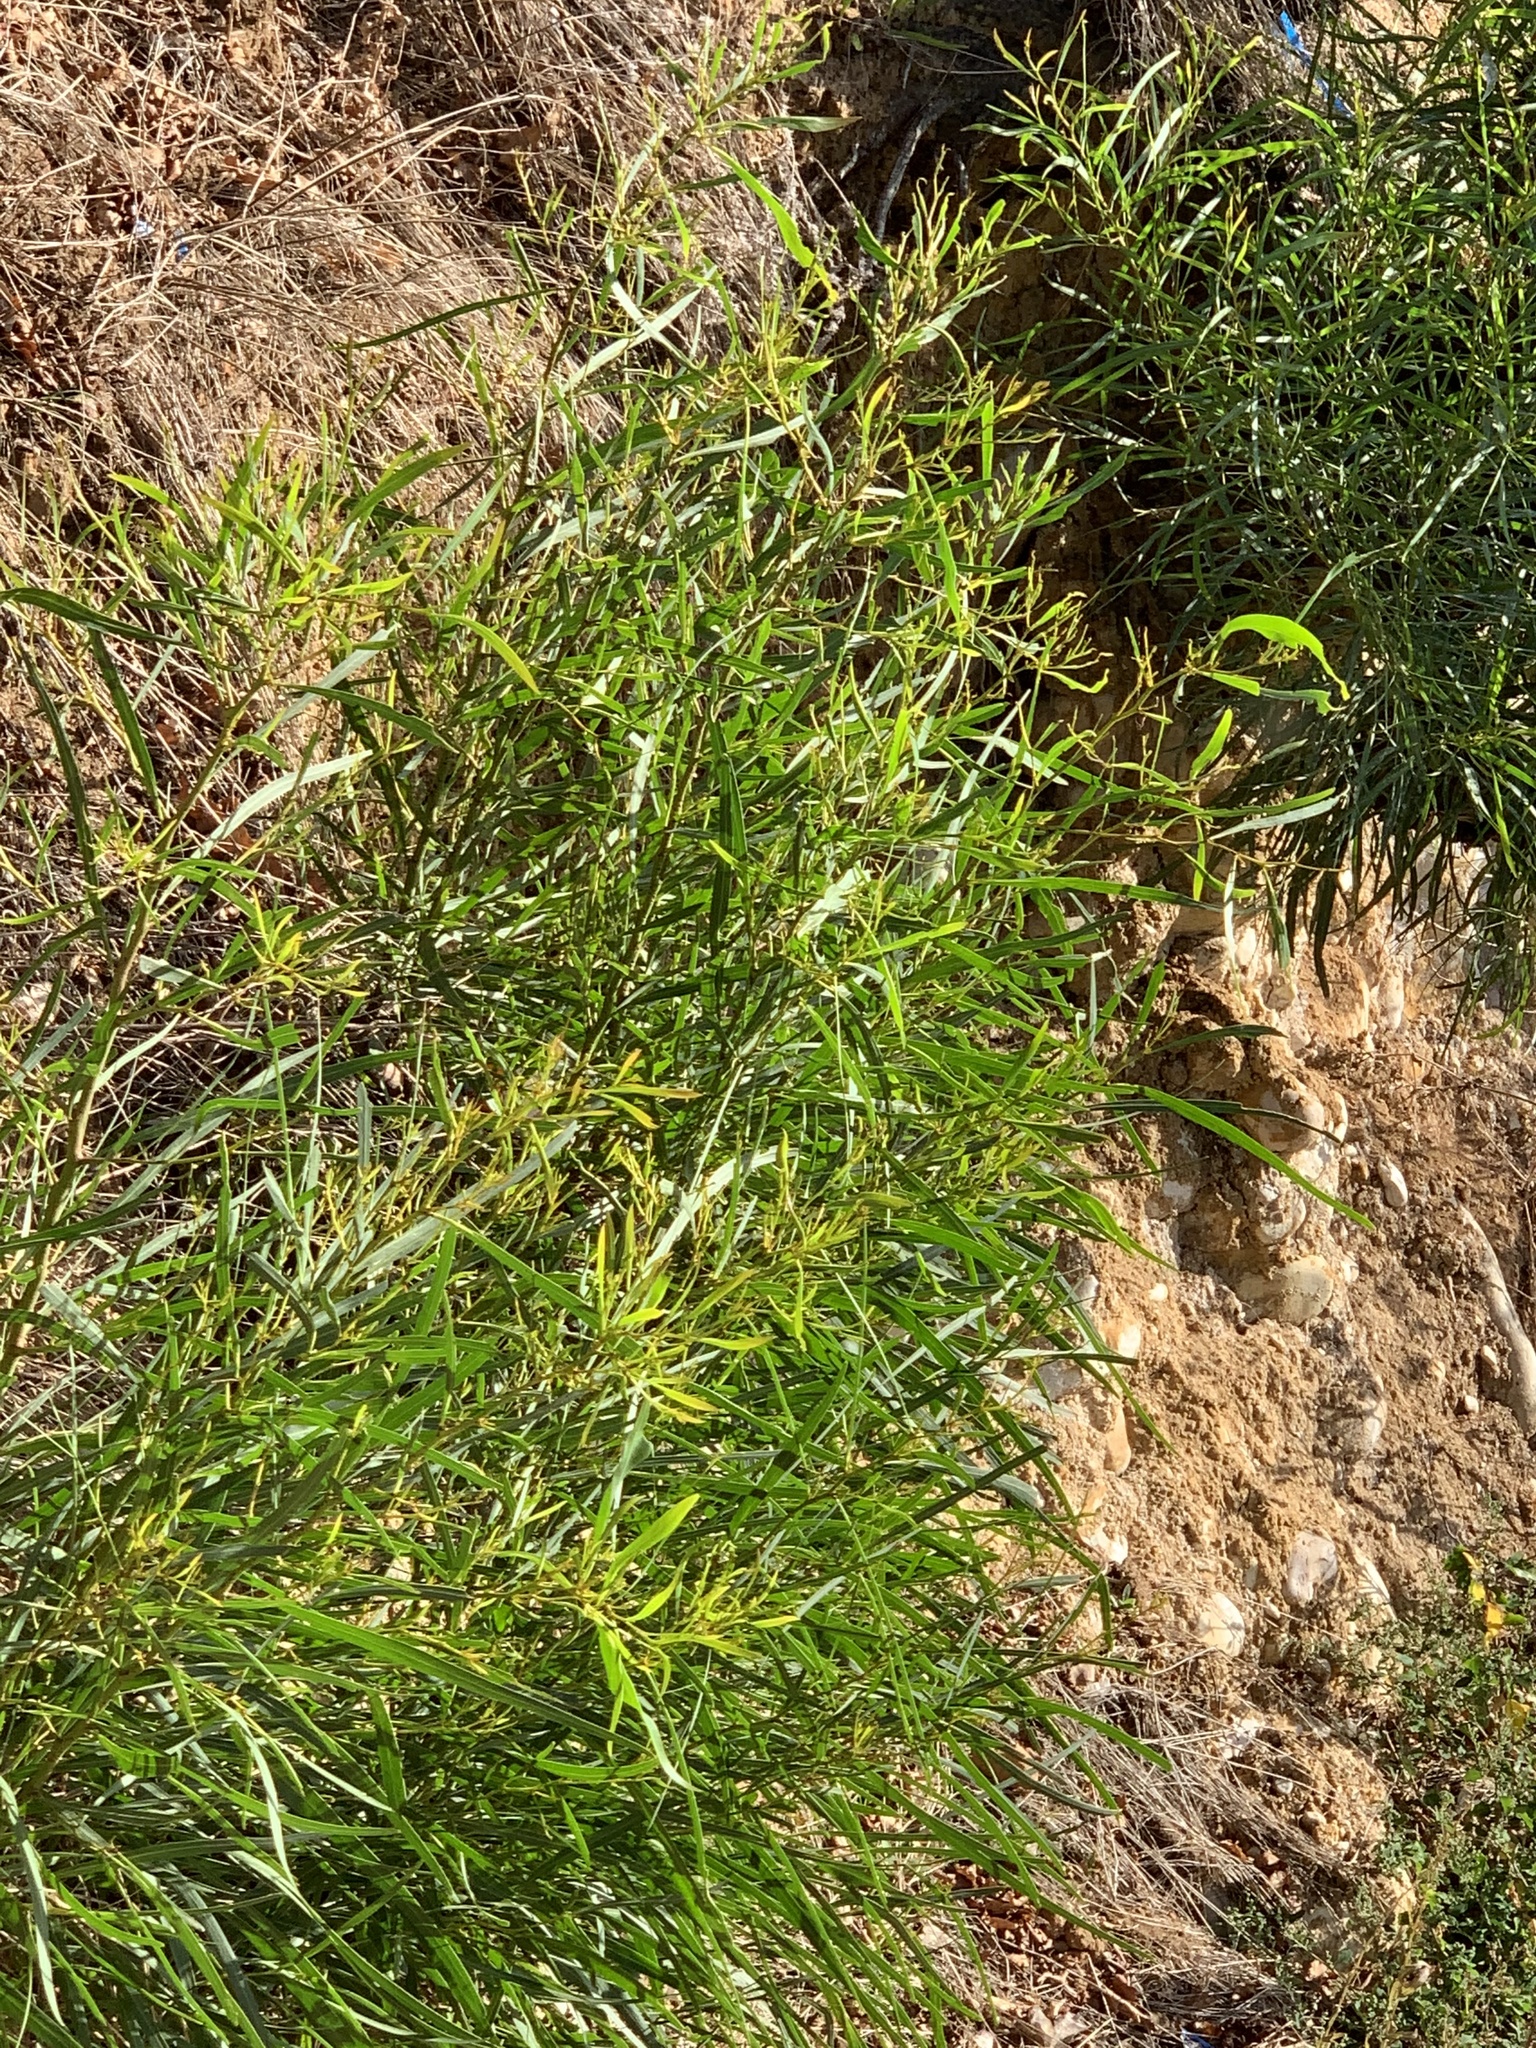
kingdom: Plantae
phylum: Tracheophyta
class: Magnoliopsida
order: Fabales
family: Fabaceae
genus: Acacia
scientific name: Acacia saligna
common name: Orange wattle
